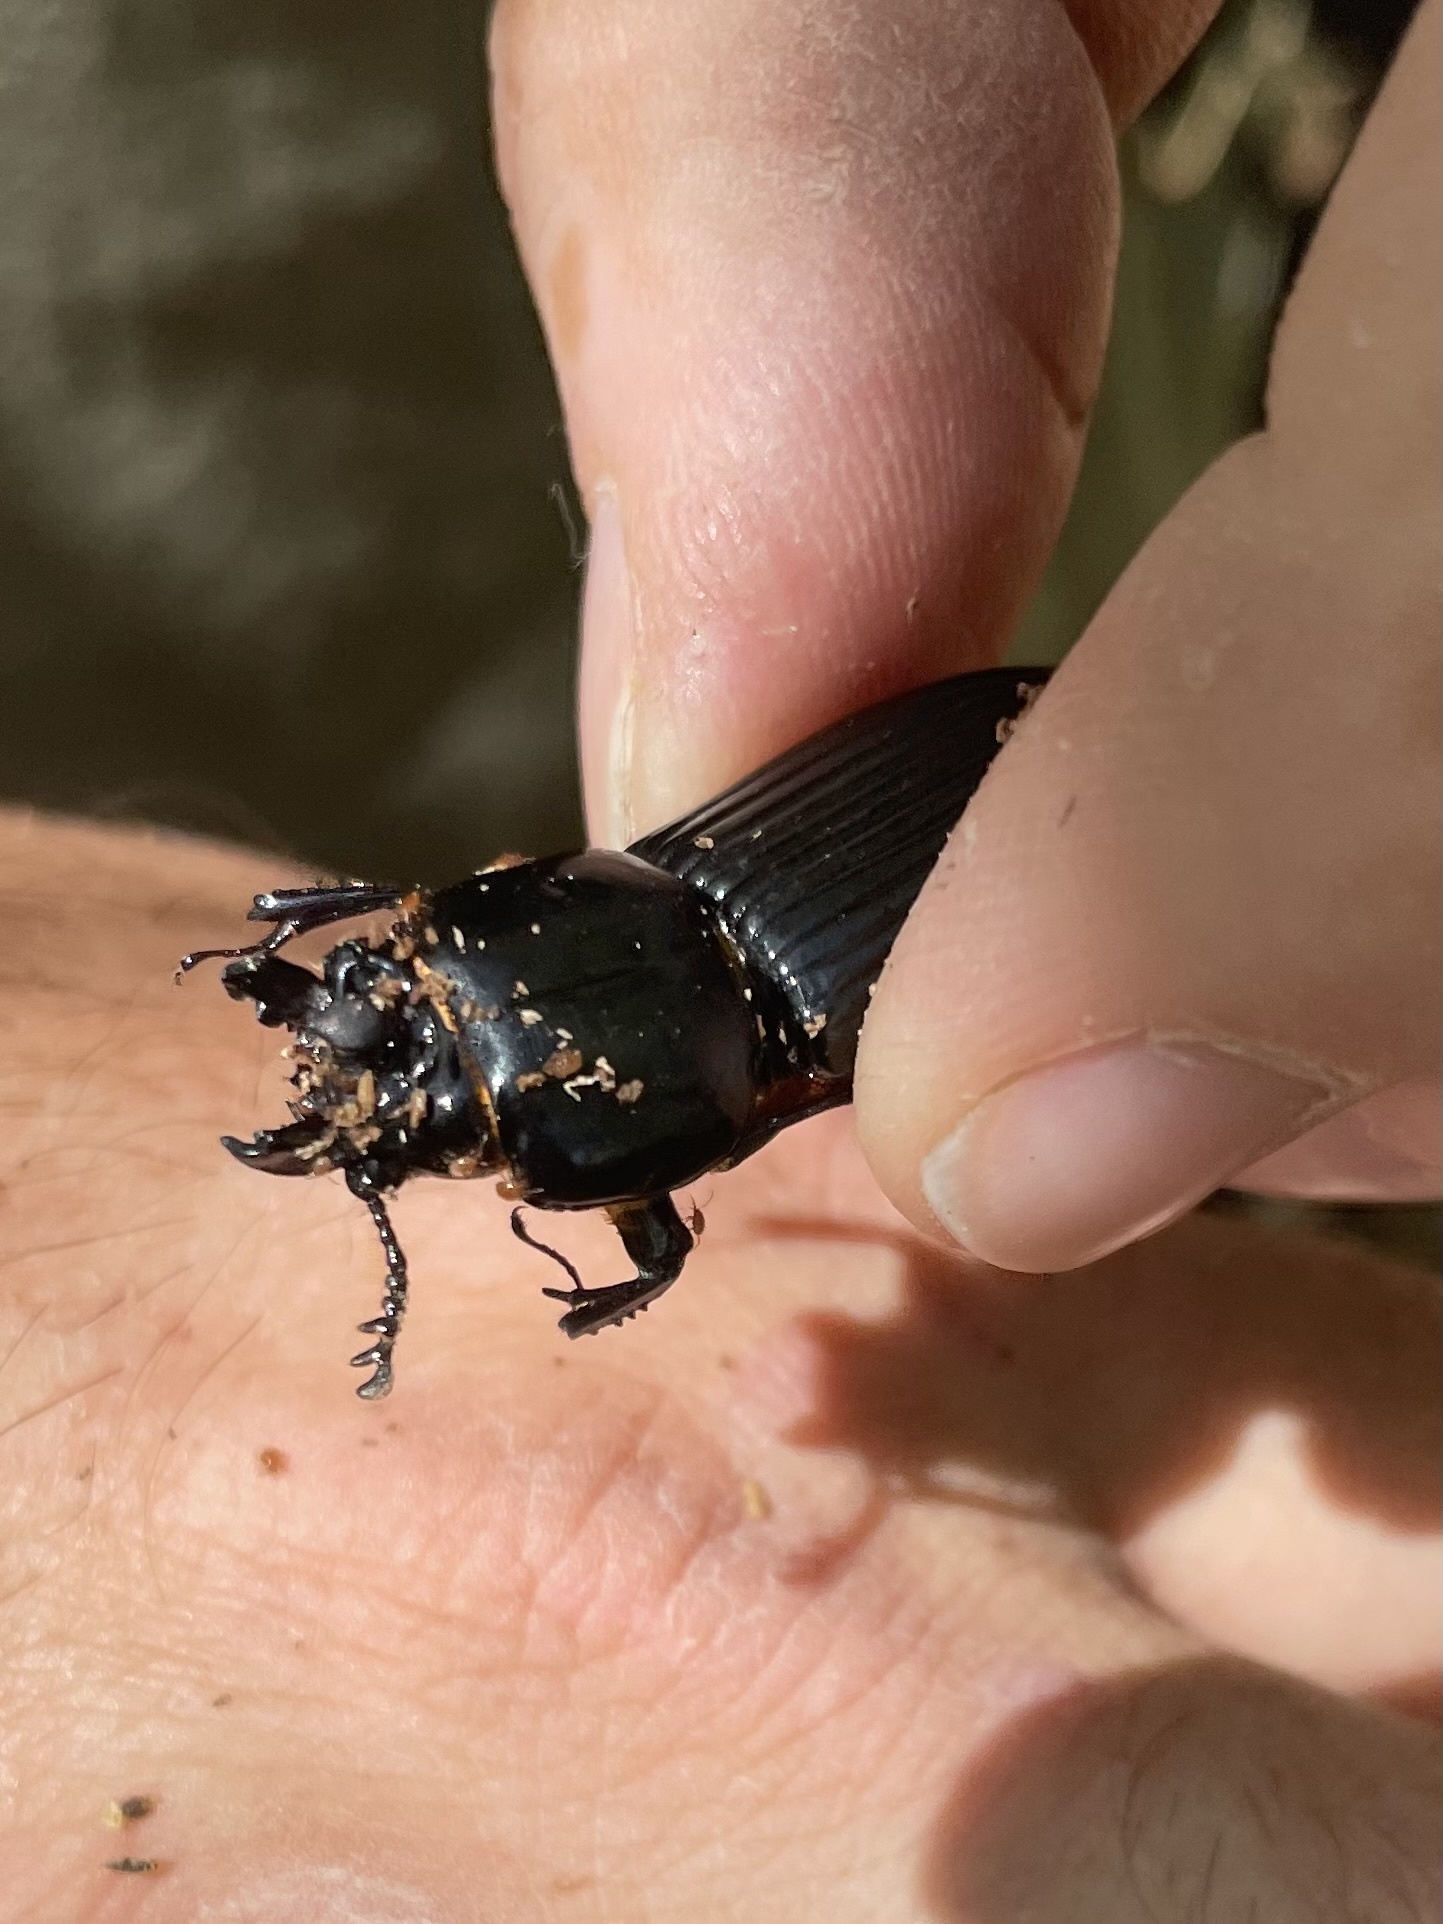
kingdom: Animalia
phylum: Arthropoda
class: Insecta
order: Coleoptera
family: Passalidae
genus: Odontotaenius
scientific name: Odontotaenius disjunctus
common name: Patent leather beetle
